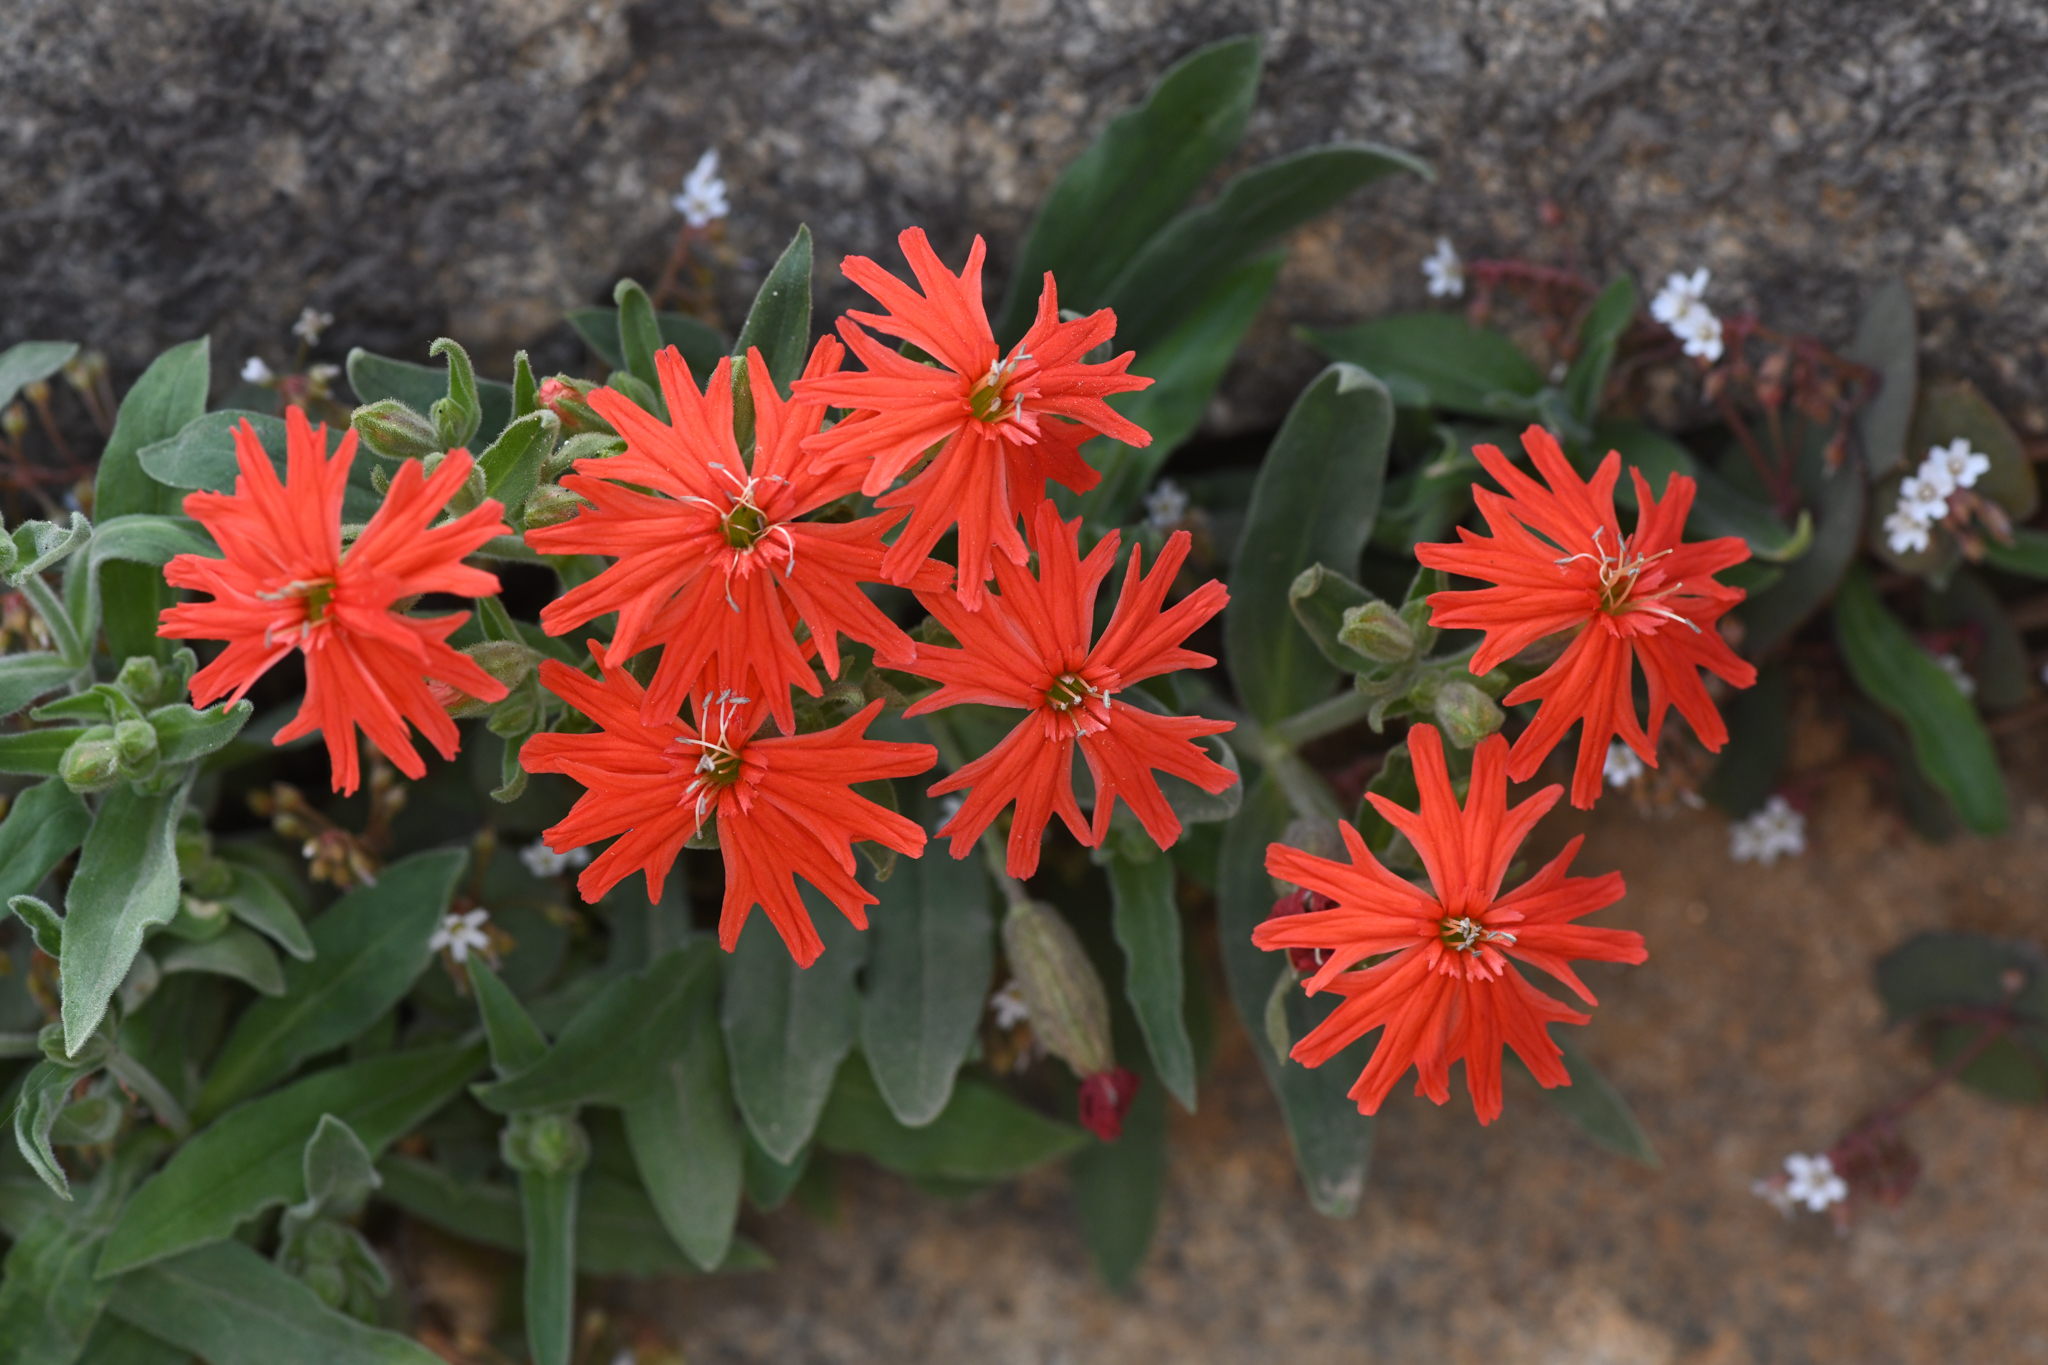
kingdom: Plantae
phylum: Tracheophyta
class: Magnoliopsida
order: Caryophyllales
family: Caryophyllaceae
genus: Silene
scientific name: Silene laciniata
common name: Indian-pink
